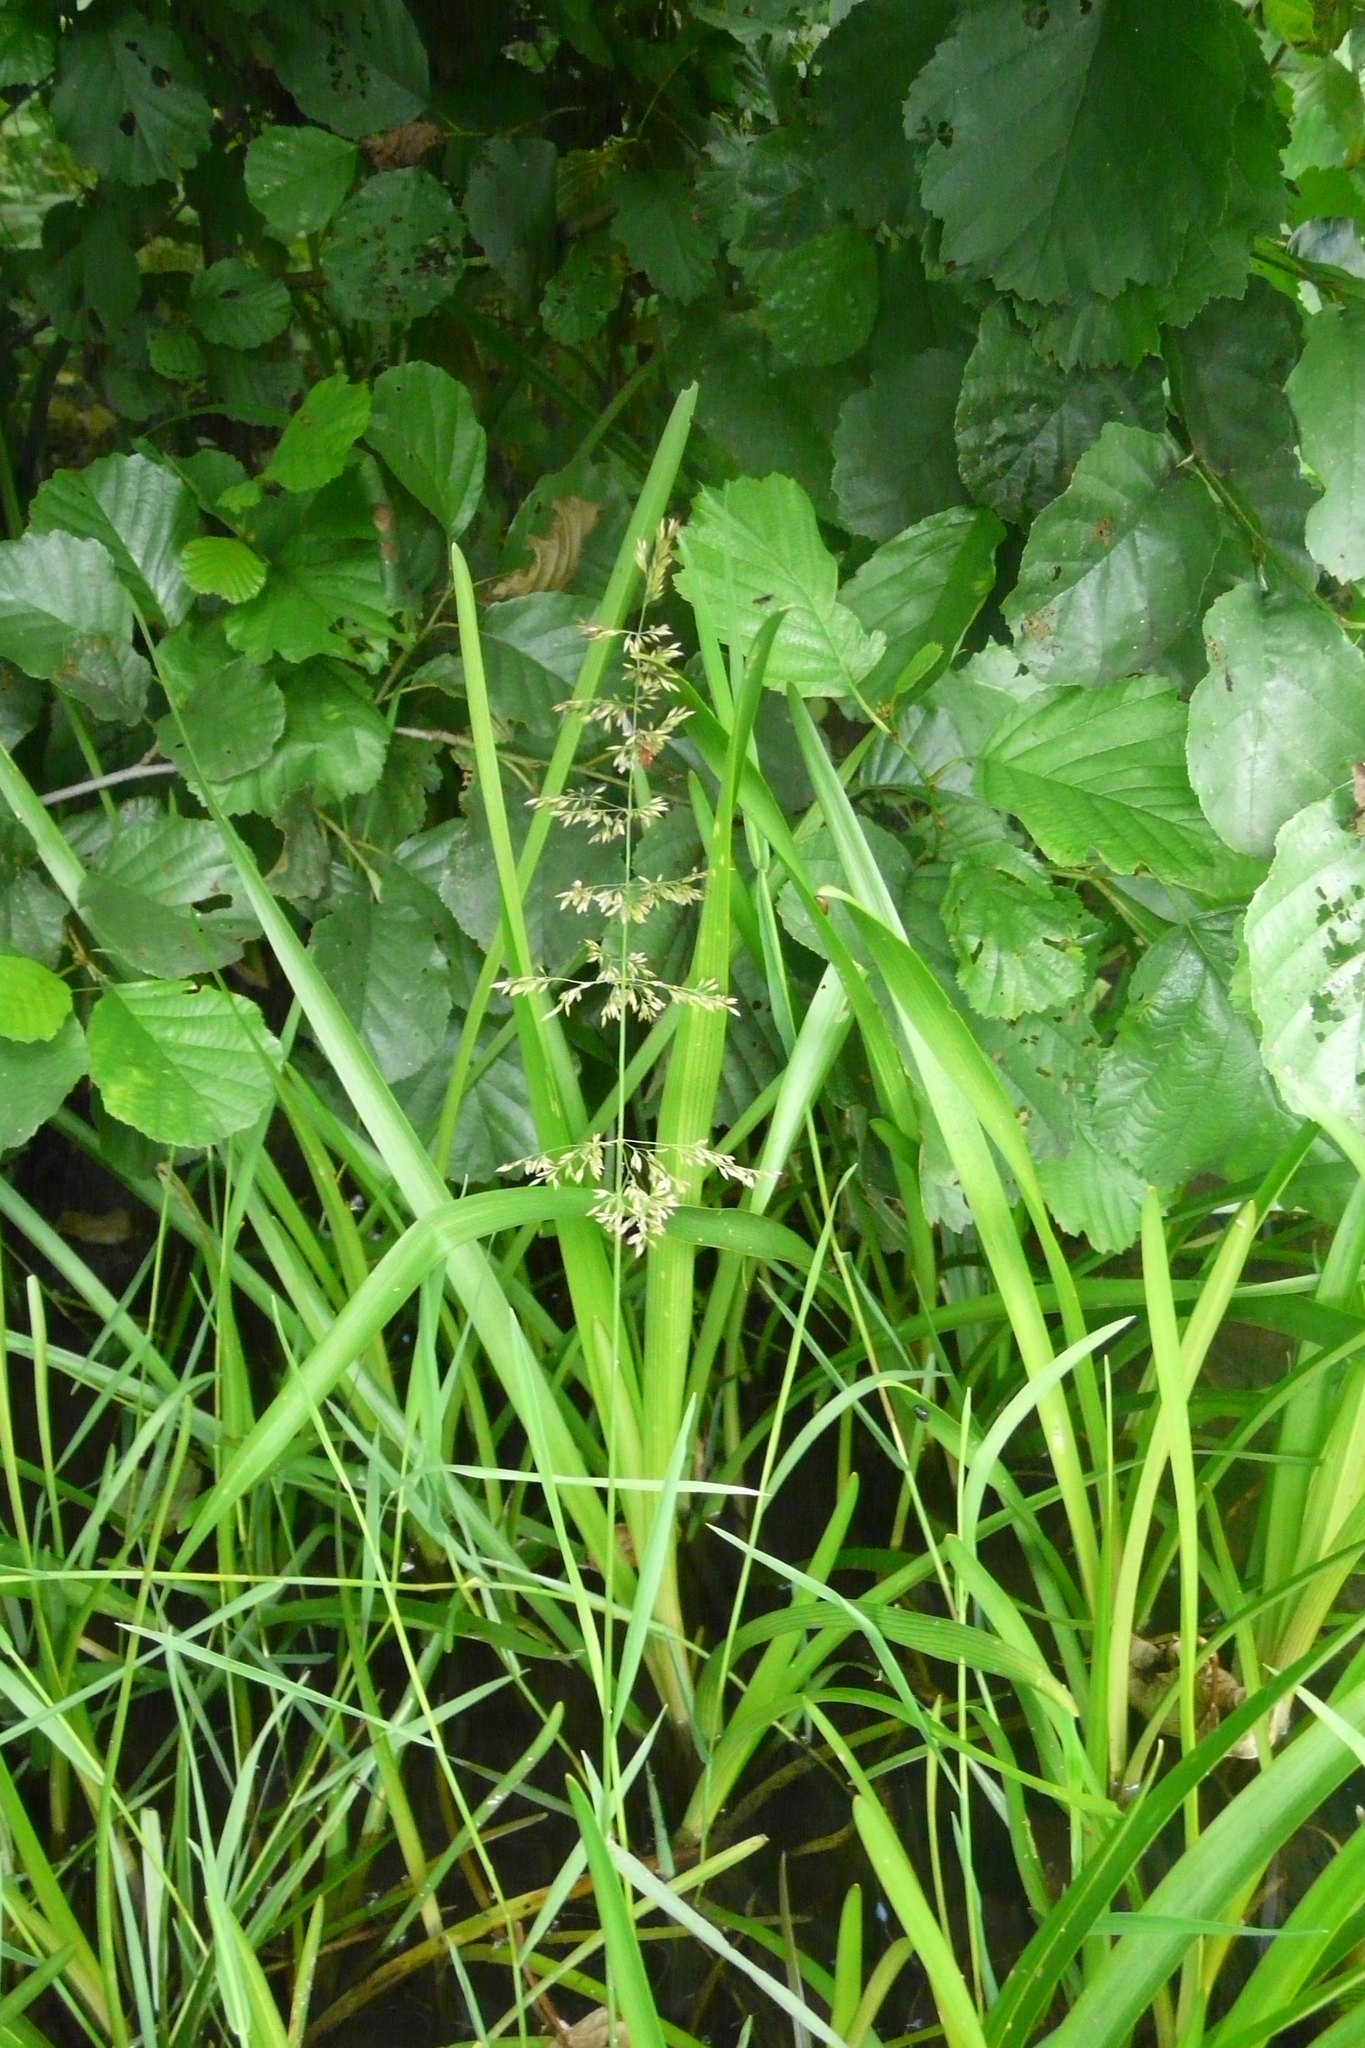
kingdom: Plantae
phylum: Tracheophyta
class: Liliopsida
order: Poales
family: Poaceae
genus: Agrostis
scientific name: Agrostis stolonifera
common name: Creeping bentgrass
